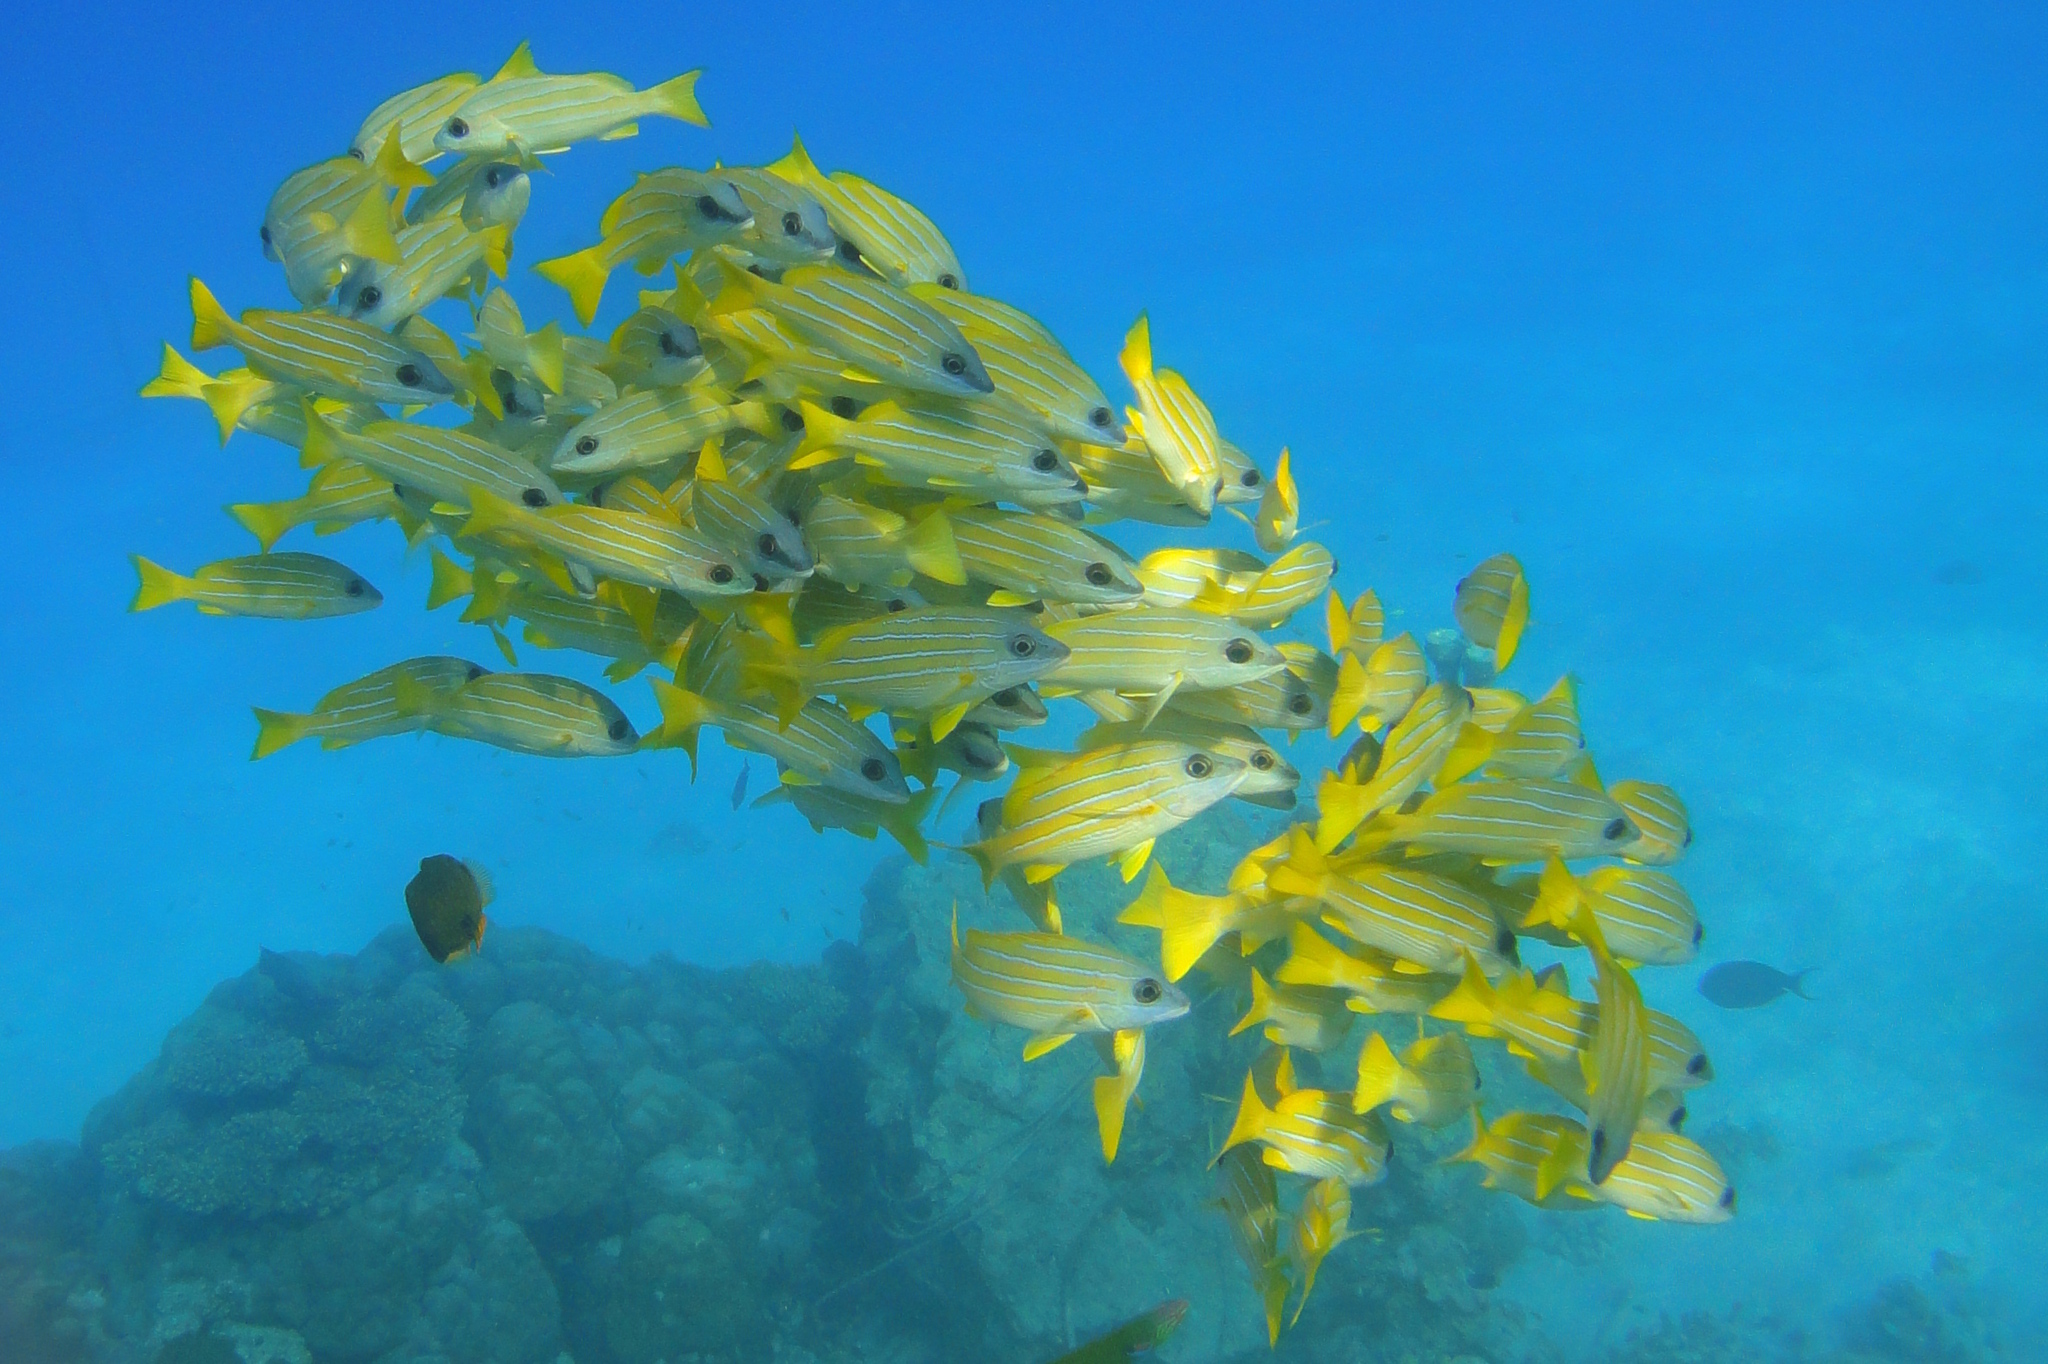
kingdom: Animalia
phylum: Chordata
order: Perciformes
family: Lutjanidae
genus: Lutjanus
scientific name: Lutjanus kasmira
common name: Common bluestripe snapper
